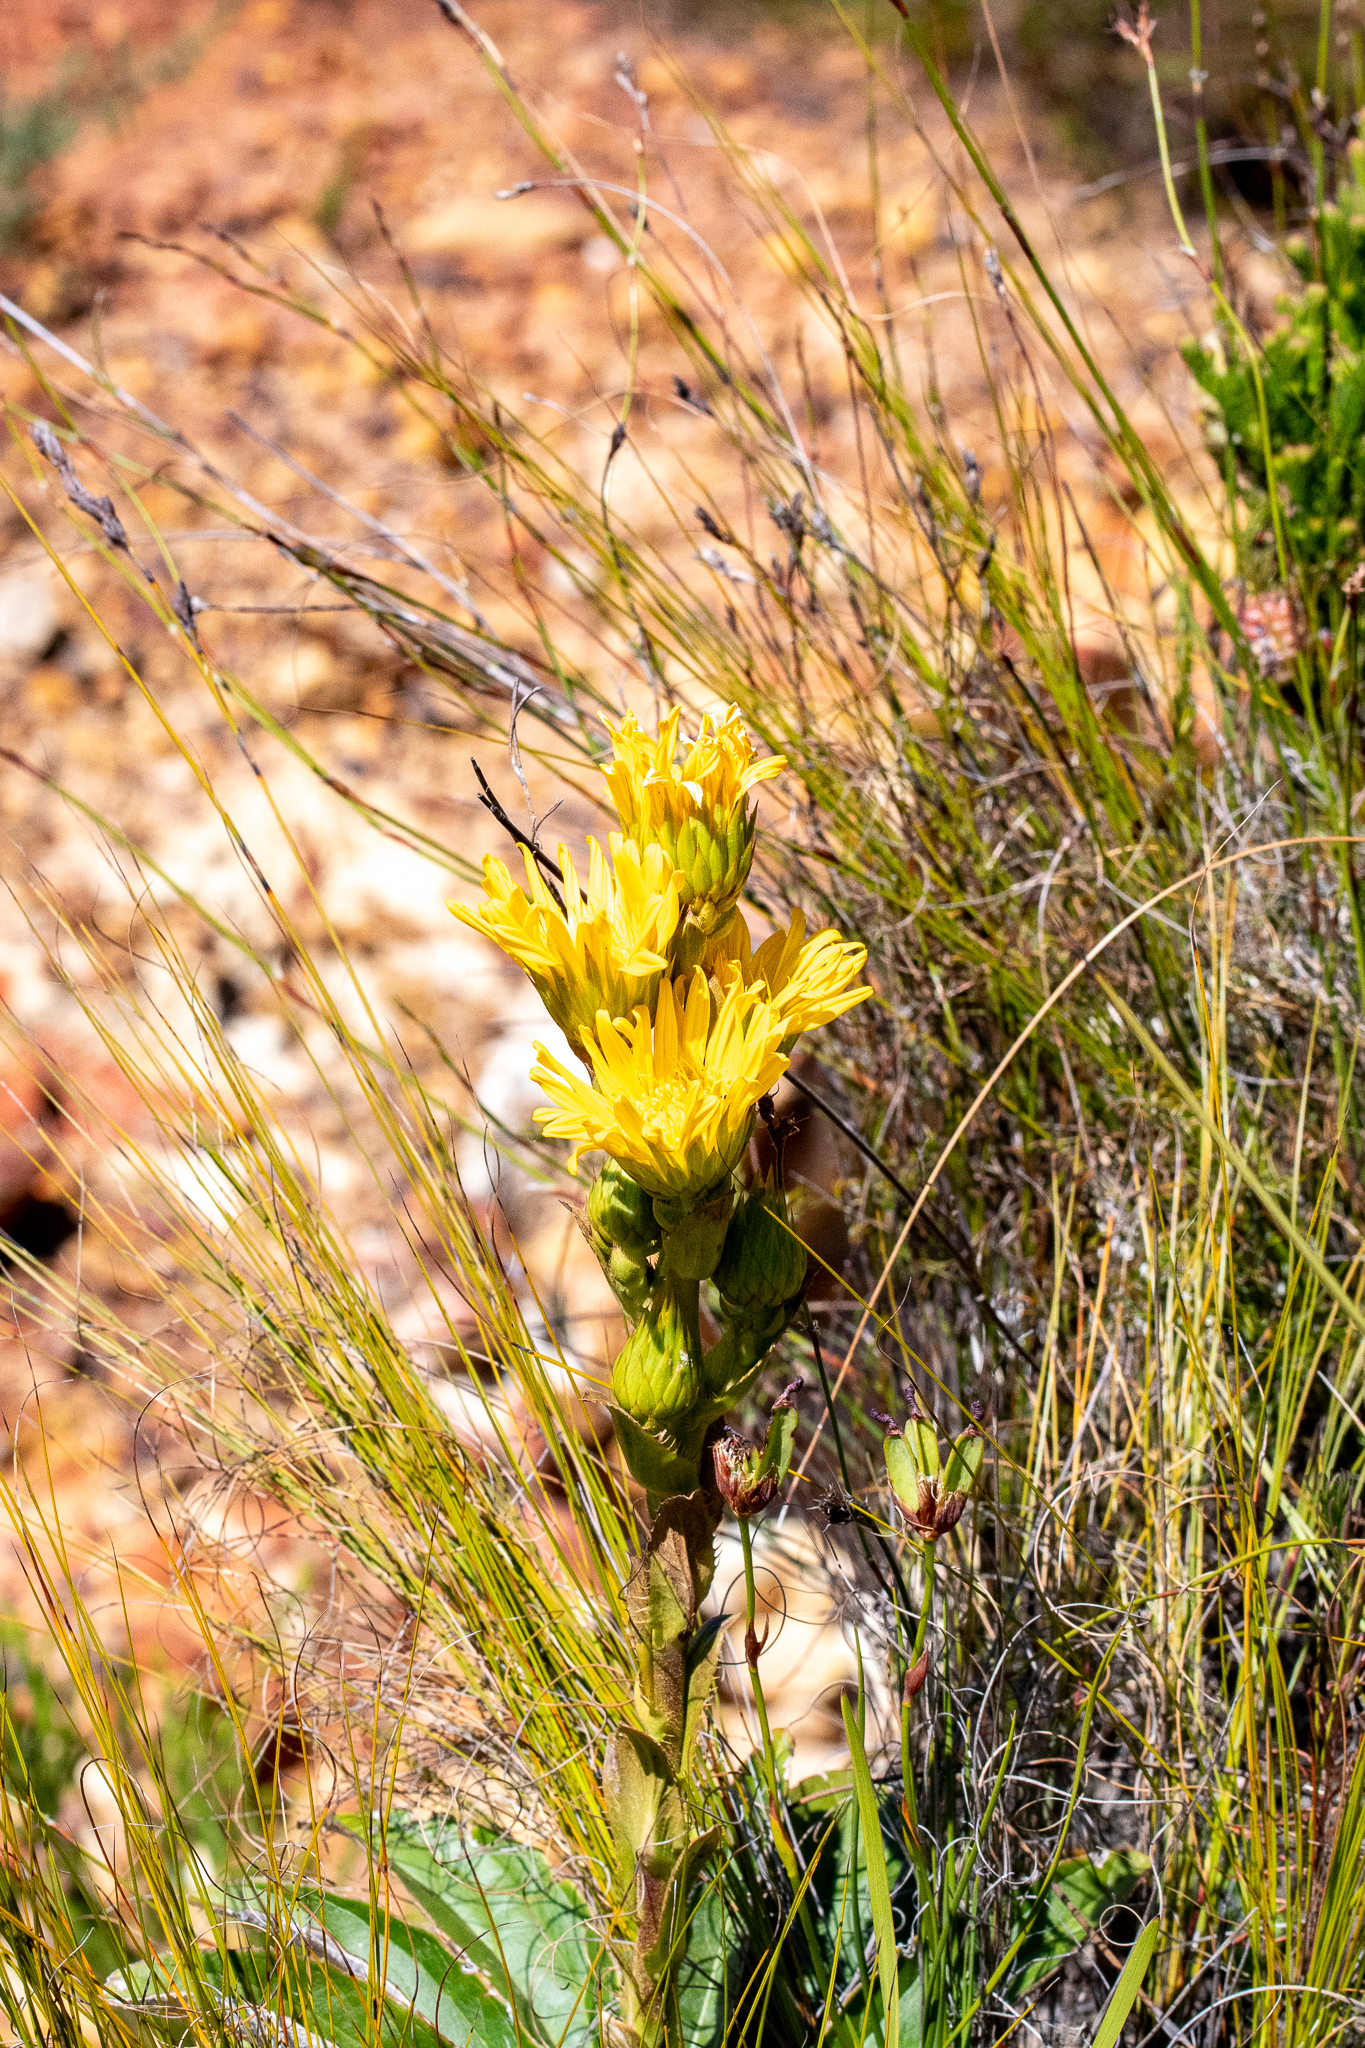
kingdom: Plantae
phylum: Tracheophyta
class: Magnoliopsida
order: Asterales
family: Asteraceae
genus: Berkheya
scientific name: Berkheya herbacea
